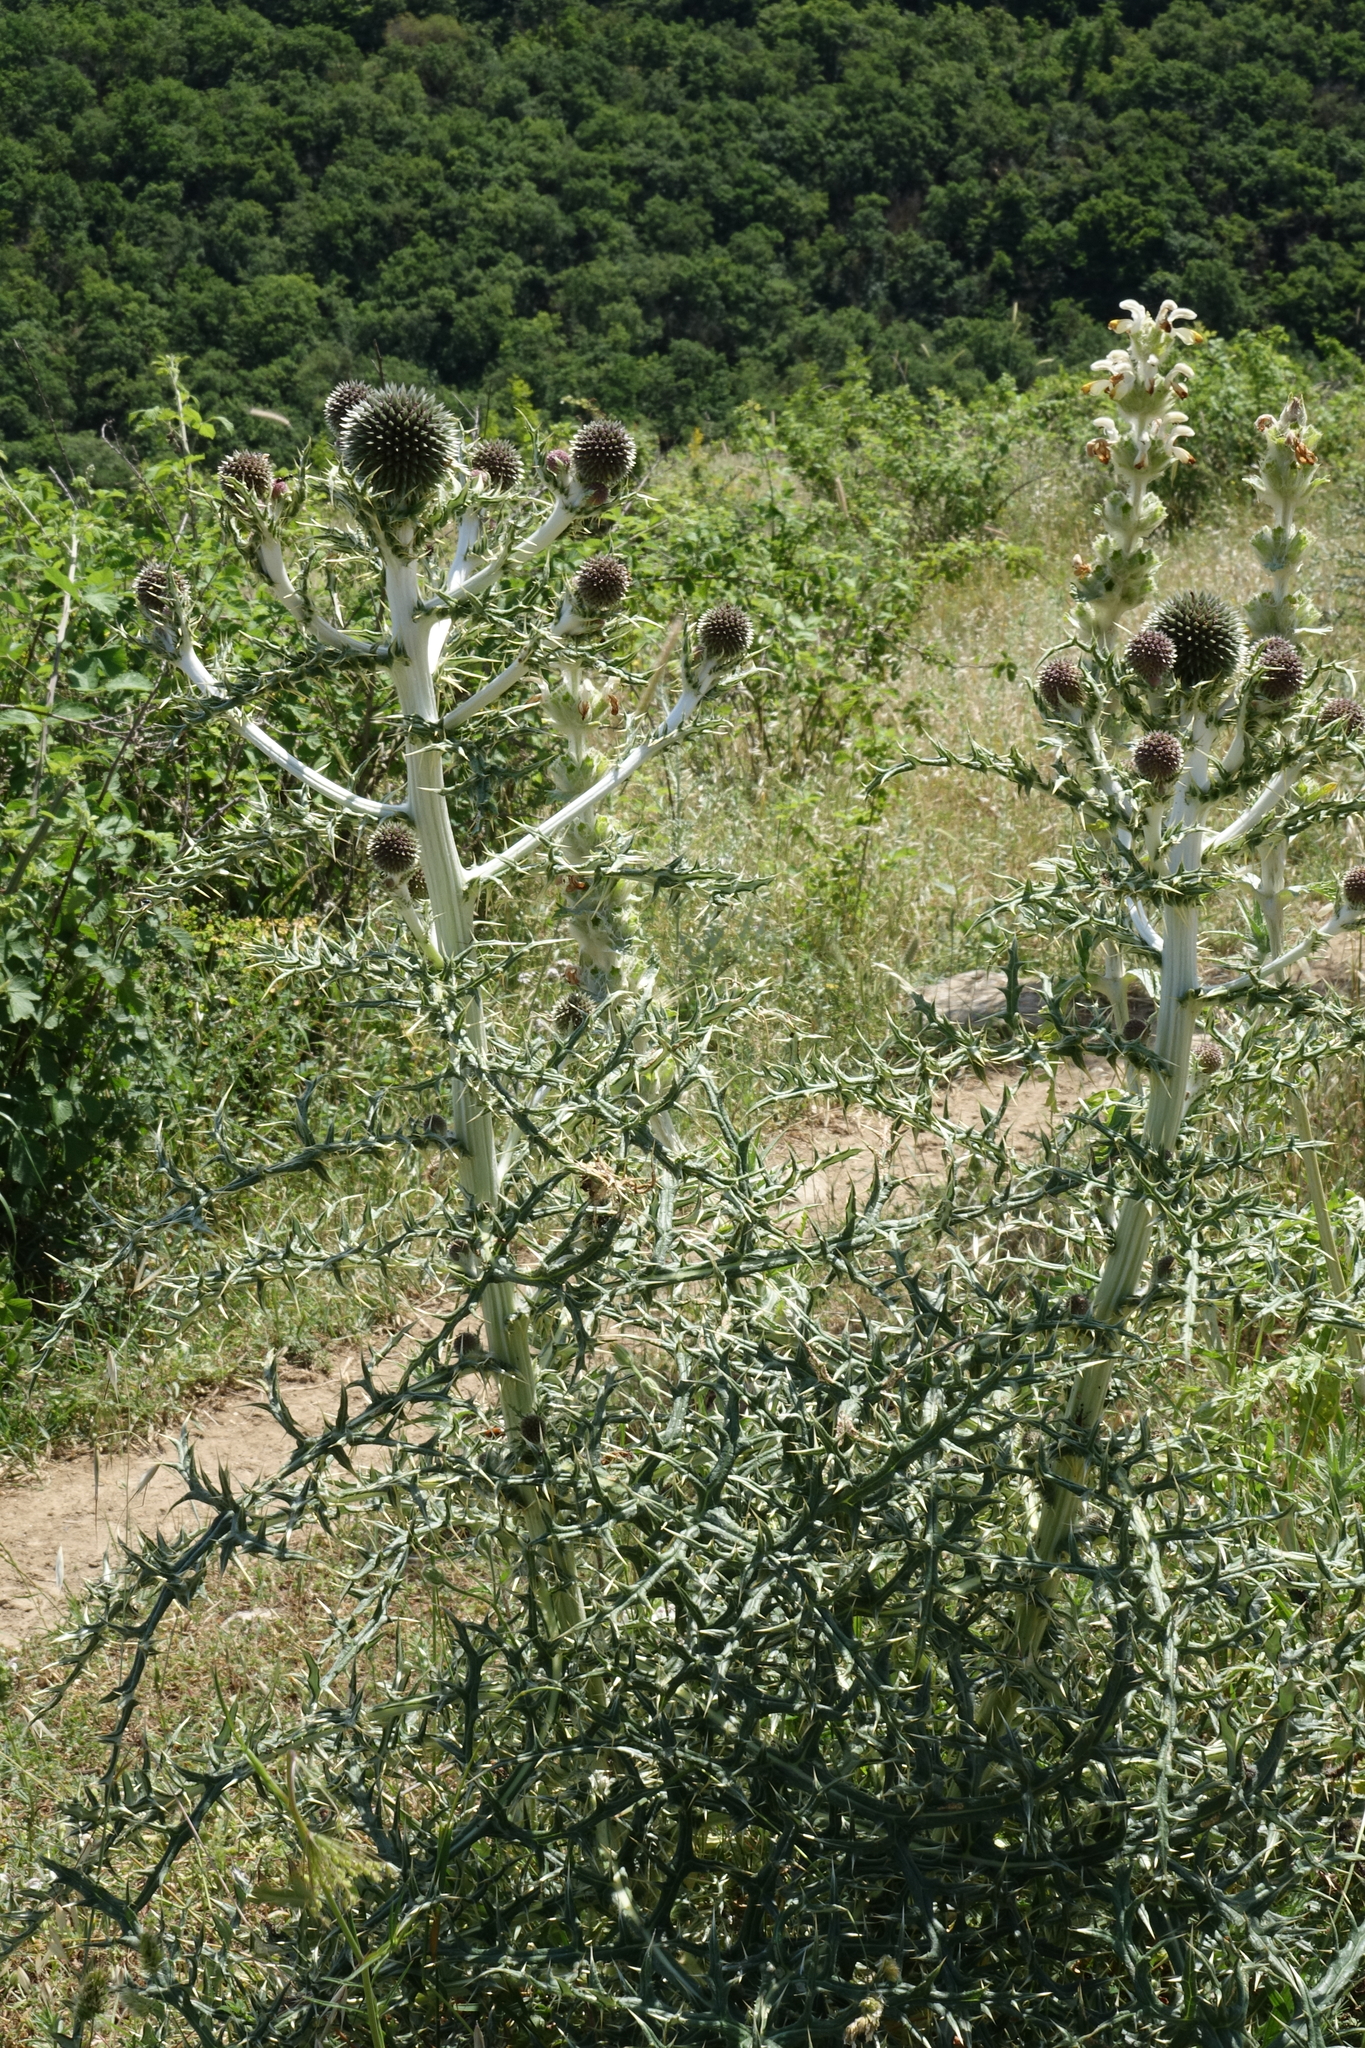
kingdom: Plantae
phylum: Tracheophyta
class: Magnoliopsida
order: Asterales
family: Asteraceae
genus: Echinops
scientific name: Echinops sphaerocephalus
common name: Glandular globe-thistle
